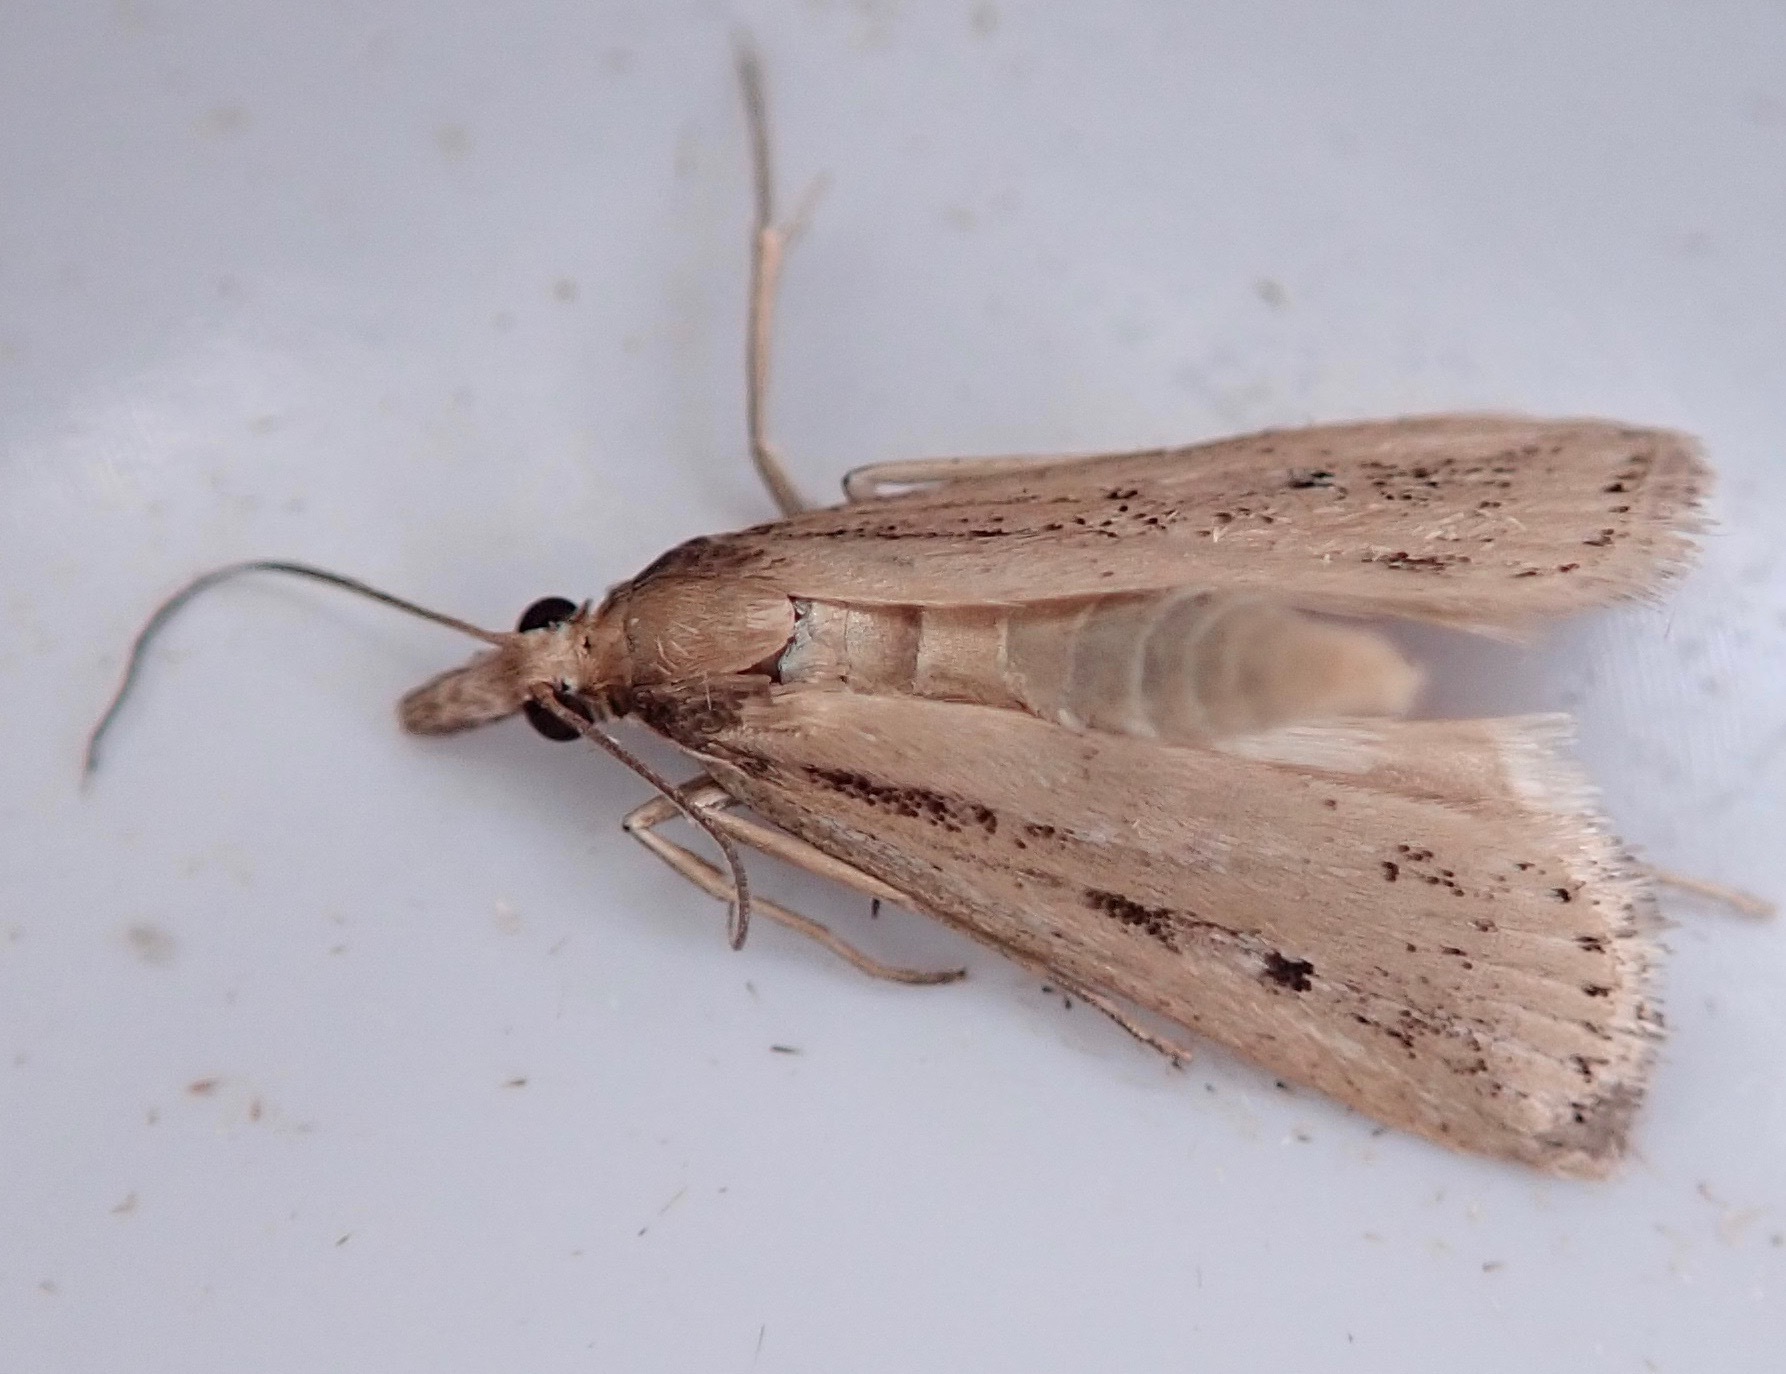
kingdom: Animalia
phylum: Arthropoda
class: Insecta
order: Lepidoptera
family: Crambidae
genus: Eudonia
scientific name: Eudonia sabulosella
